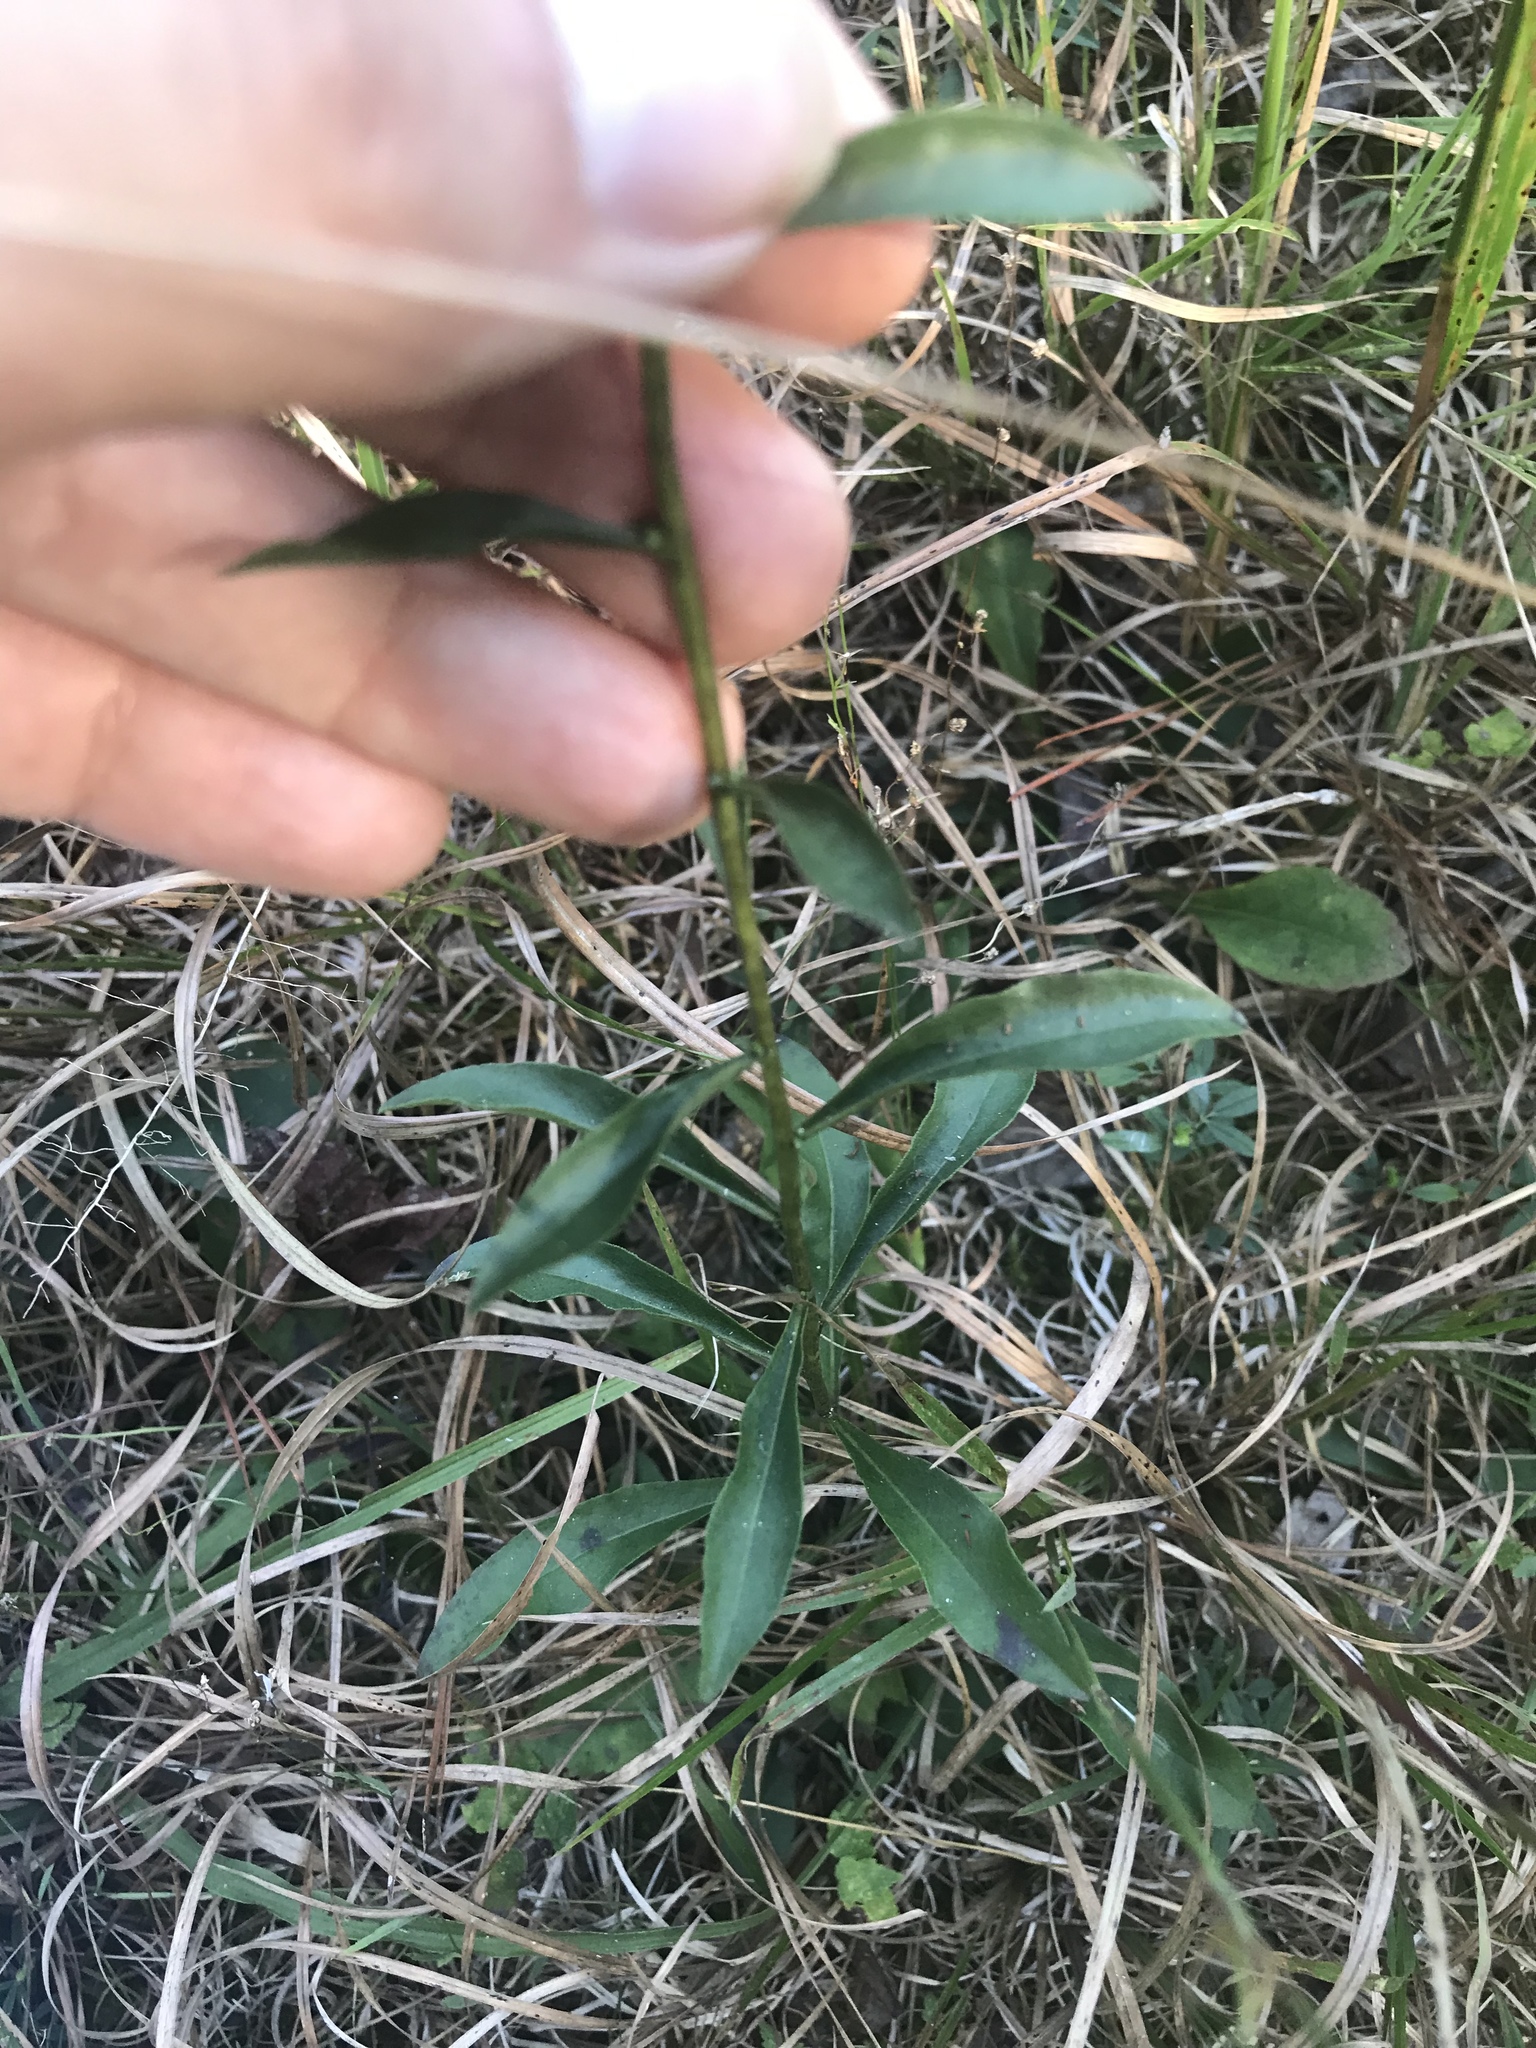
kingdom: Plantae
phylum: Tracheophyta
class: Magnoliopsida
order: Asterales
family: Asteraceae
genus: Solidago
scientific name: Solidago erecta
